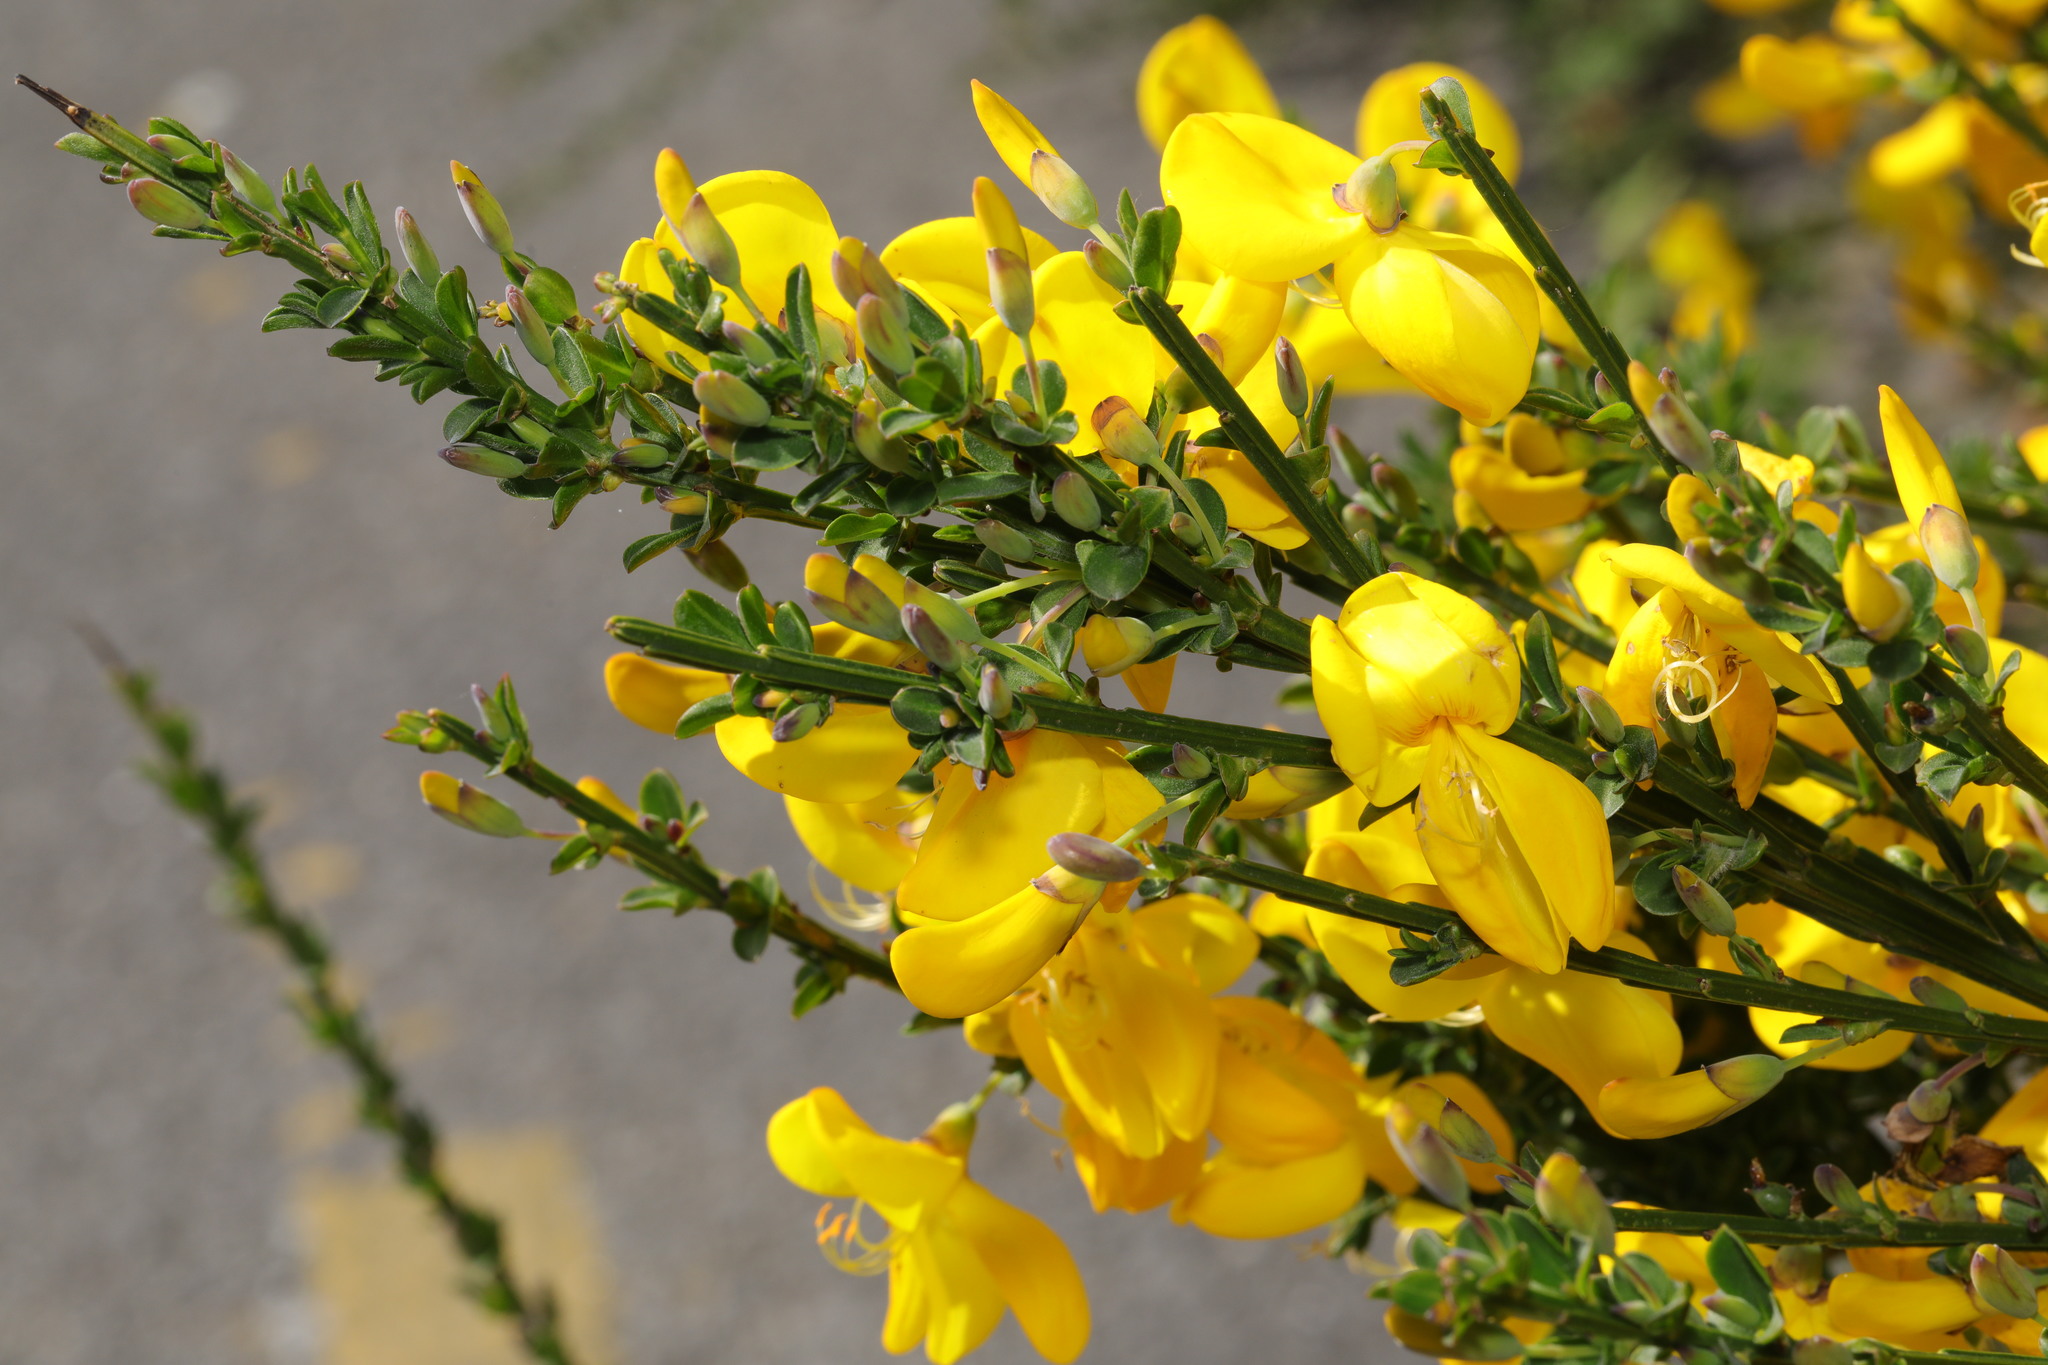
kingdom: Plantae
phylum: Tracheophyta
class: Magnoliopsida
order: Fabales
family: Fabaceae
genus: Cytisus
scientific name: Cytisus scoparius
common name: Scotch broom
